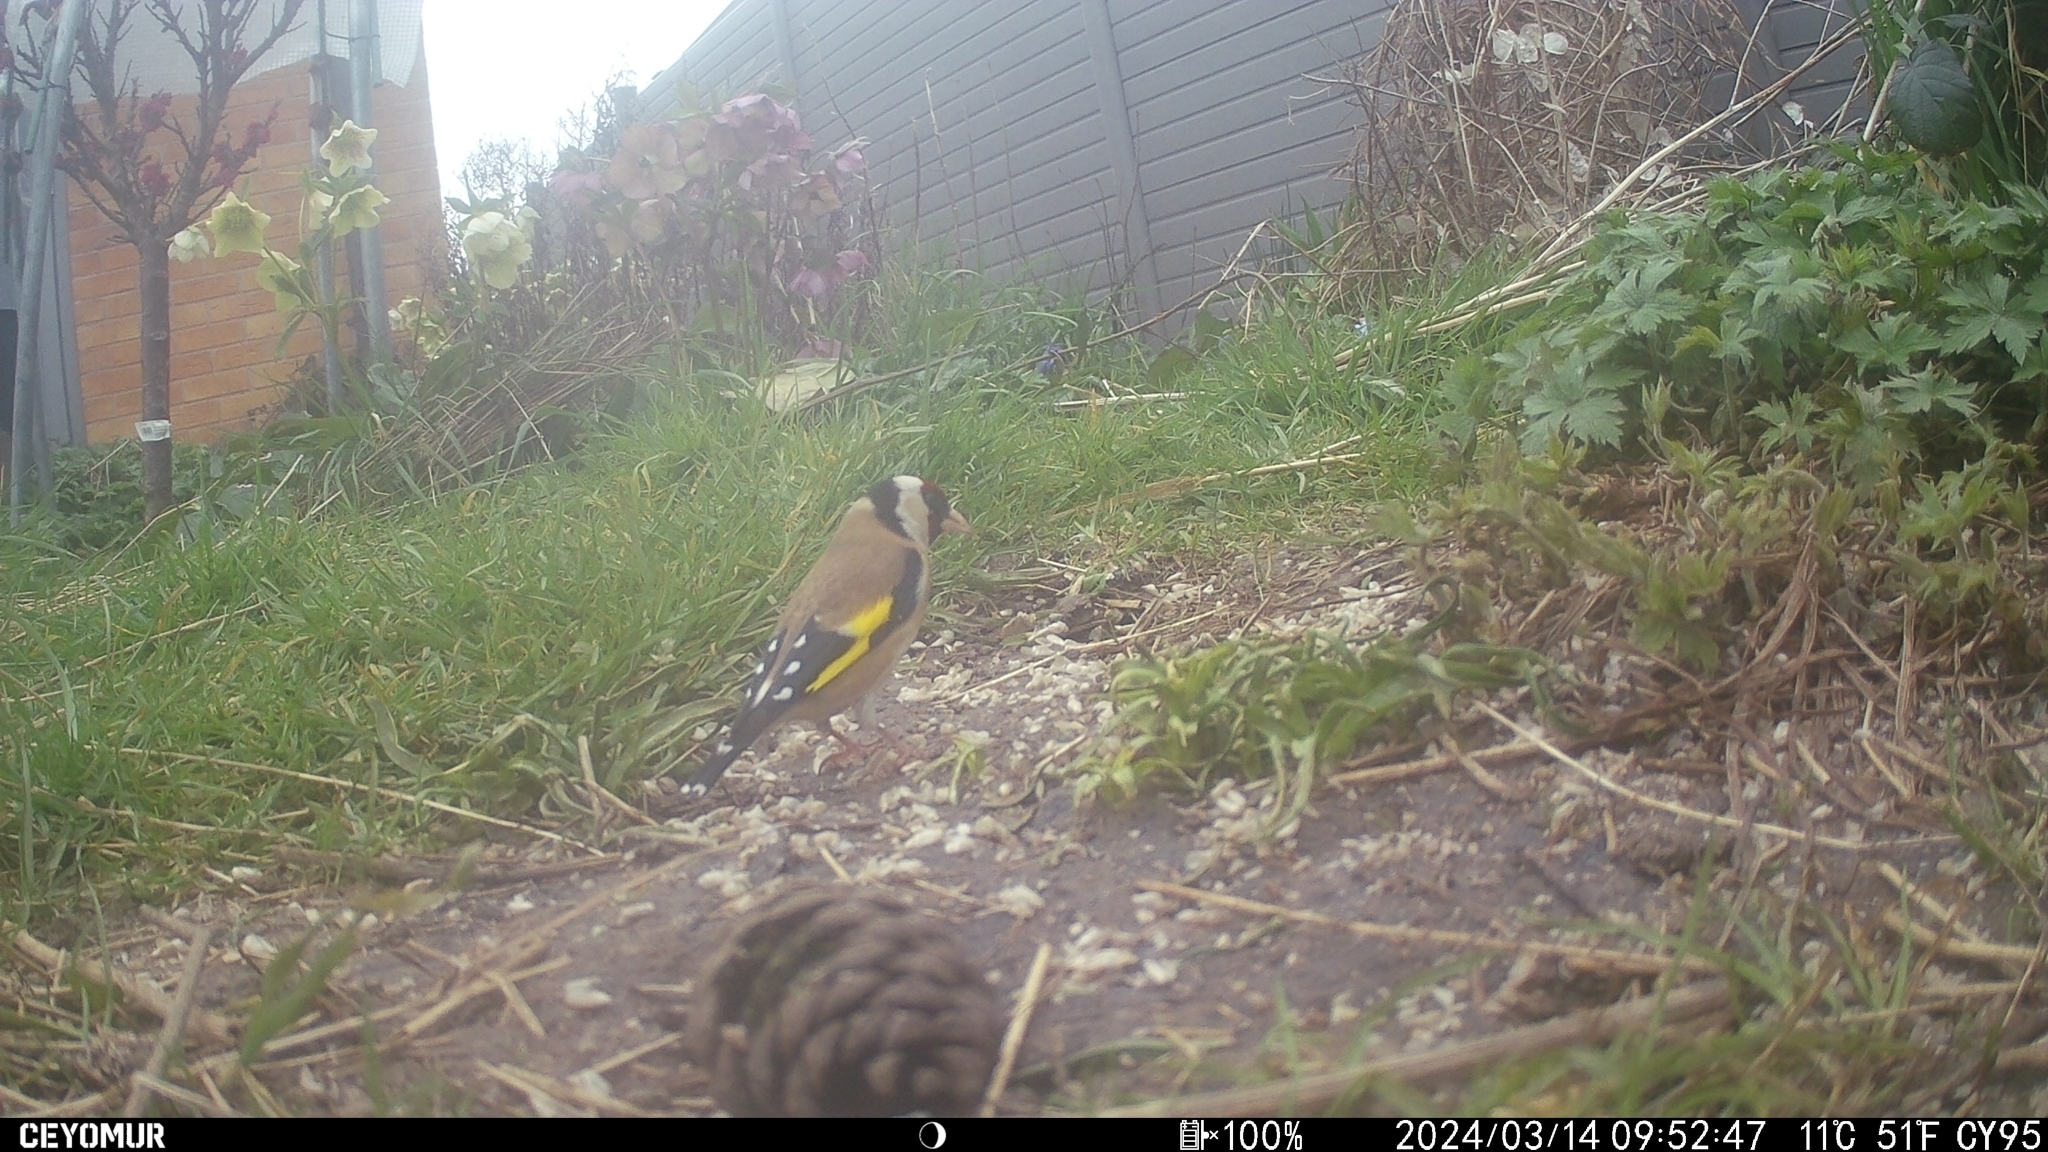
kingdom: Animalia
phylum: Chordata
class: Aves
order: Passeriformes
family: Fringillidae
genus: Carduelis
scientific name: Carduelis carduelis
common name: European goldfinch
